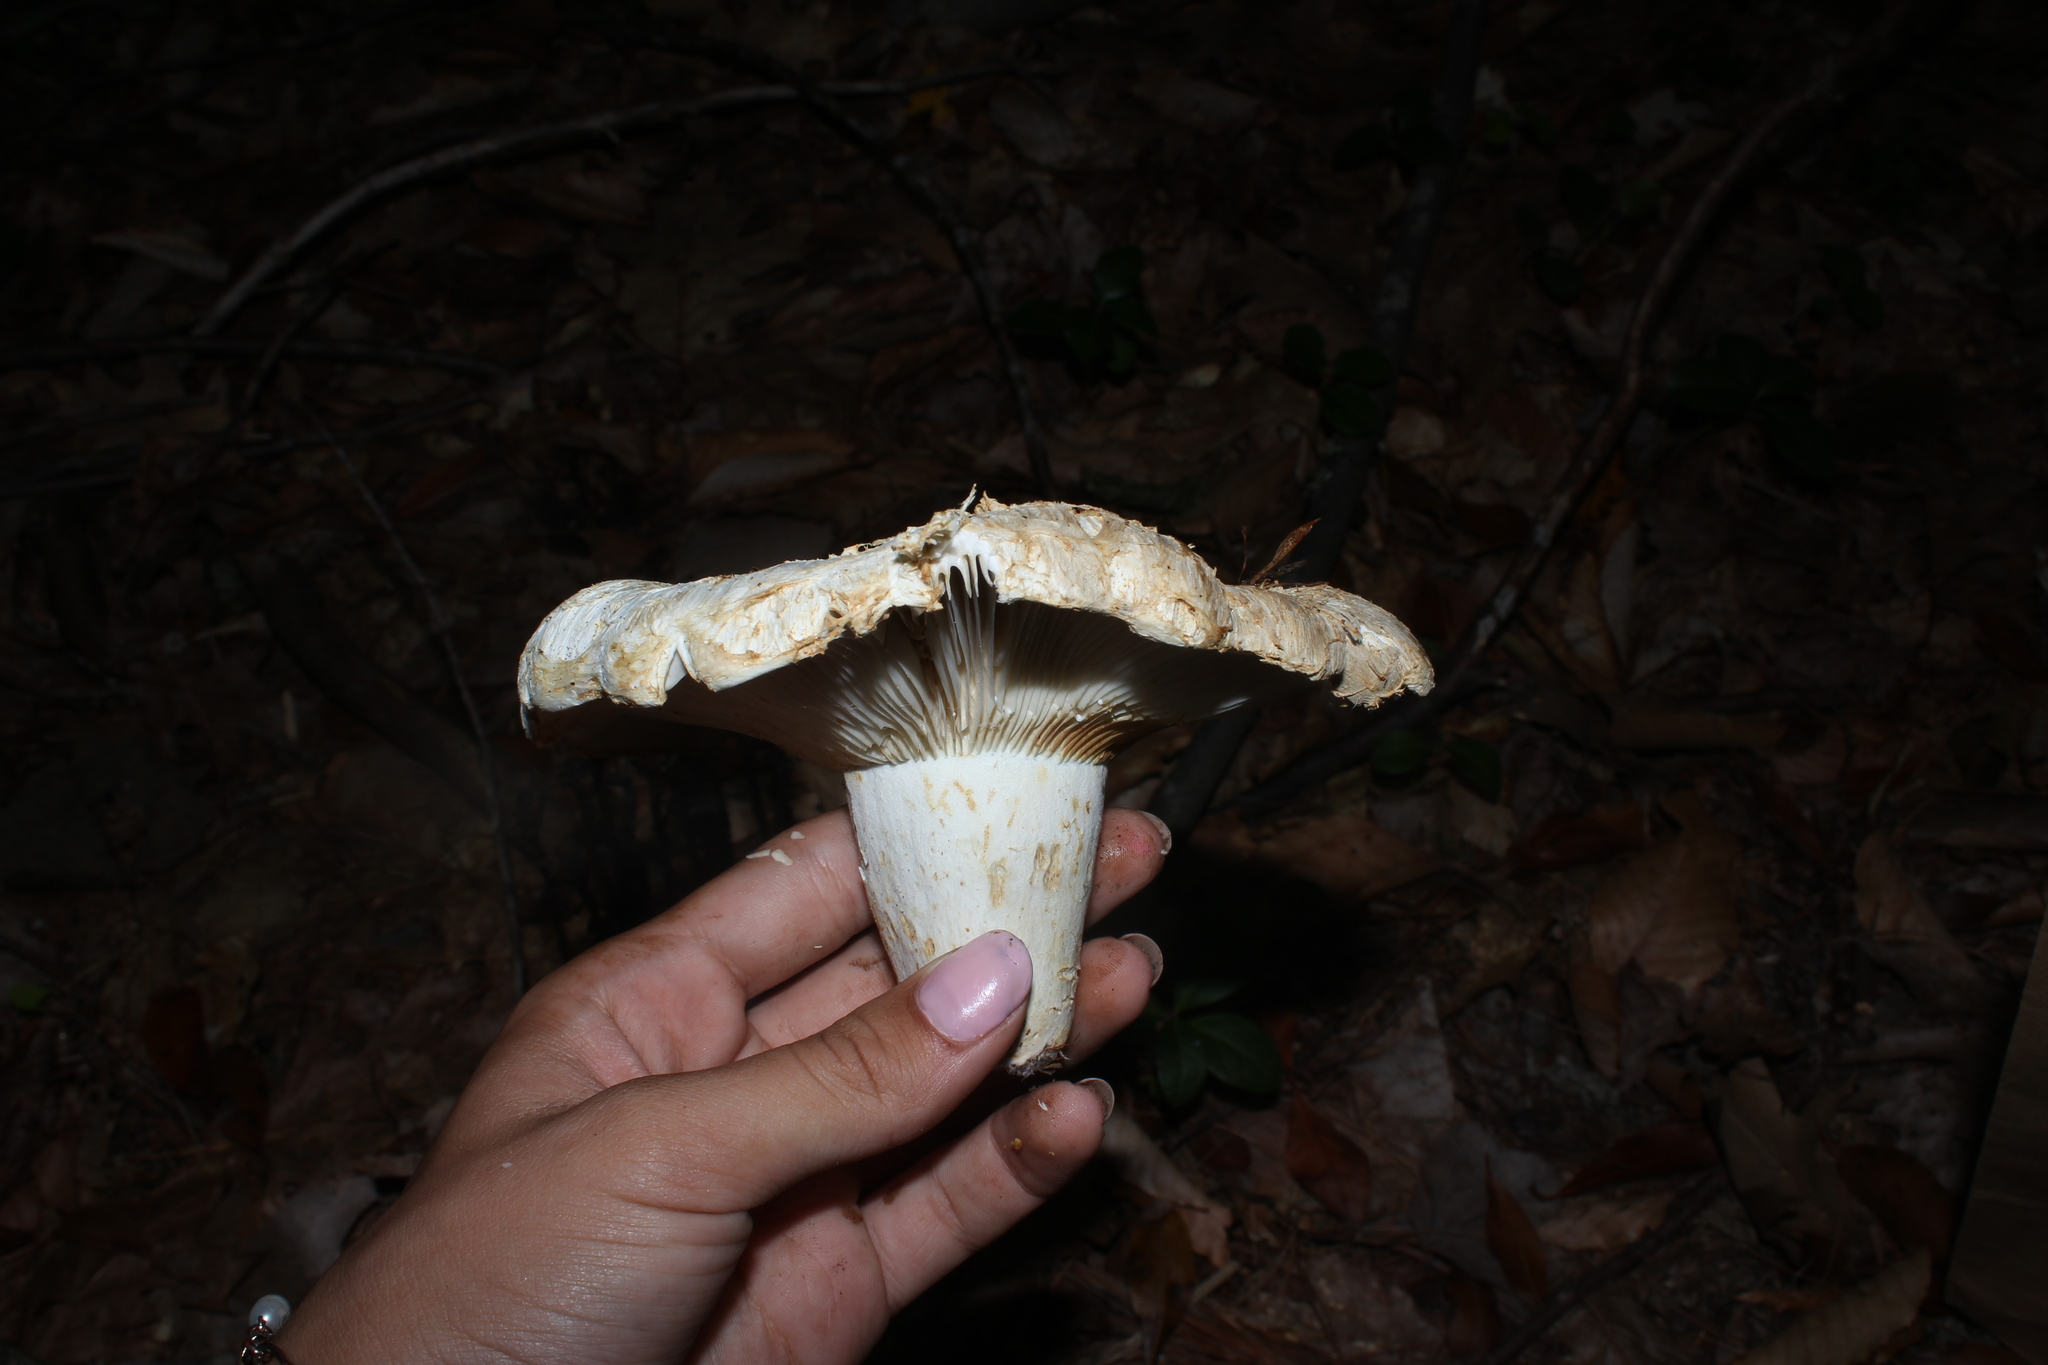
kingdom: Fungi
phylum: Basidiomycota
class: Agaricomycetes
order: Russulales
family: Russulaceae
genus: Lactifluus
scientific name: Lactifluus
